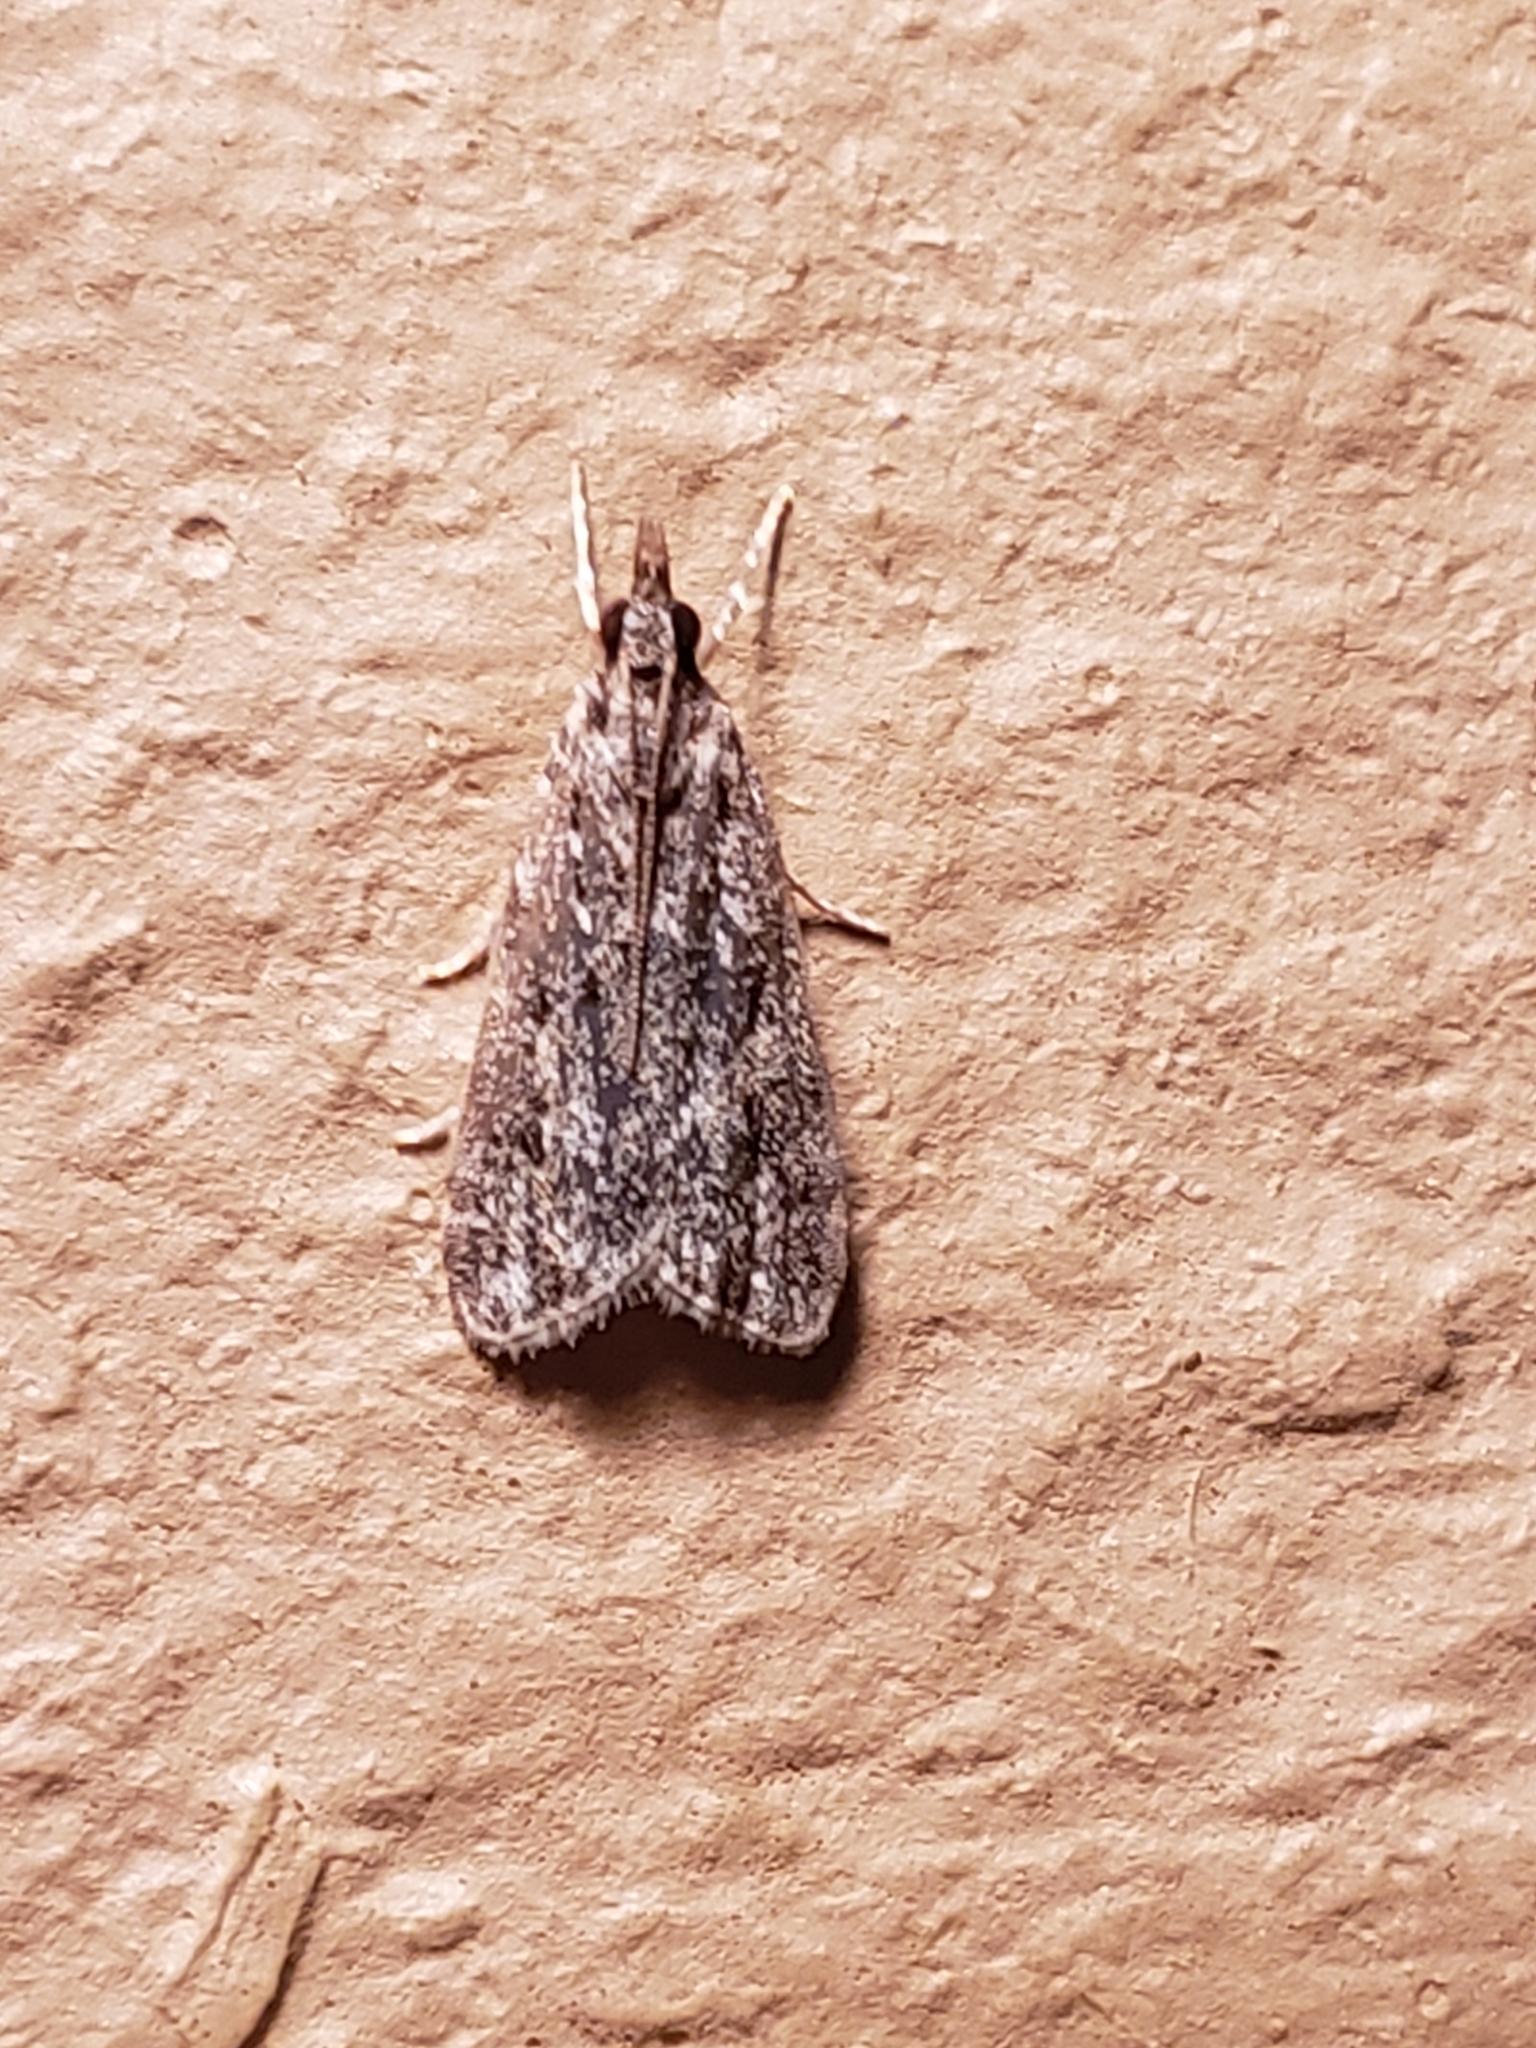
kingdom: Animalia
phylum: Arthropoda
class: Insecta
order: Lepidoptera
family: Crambidae
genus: Eudonia
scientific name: Eudonia heterosalis
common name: Mcdunnough's eudonia
